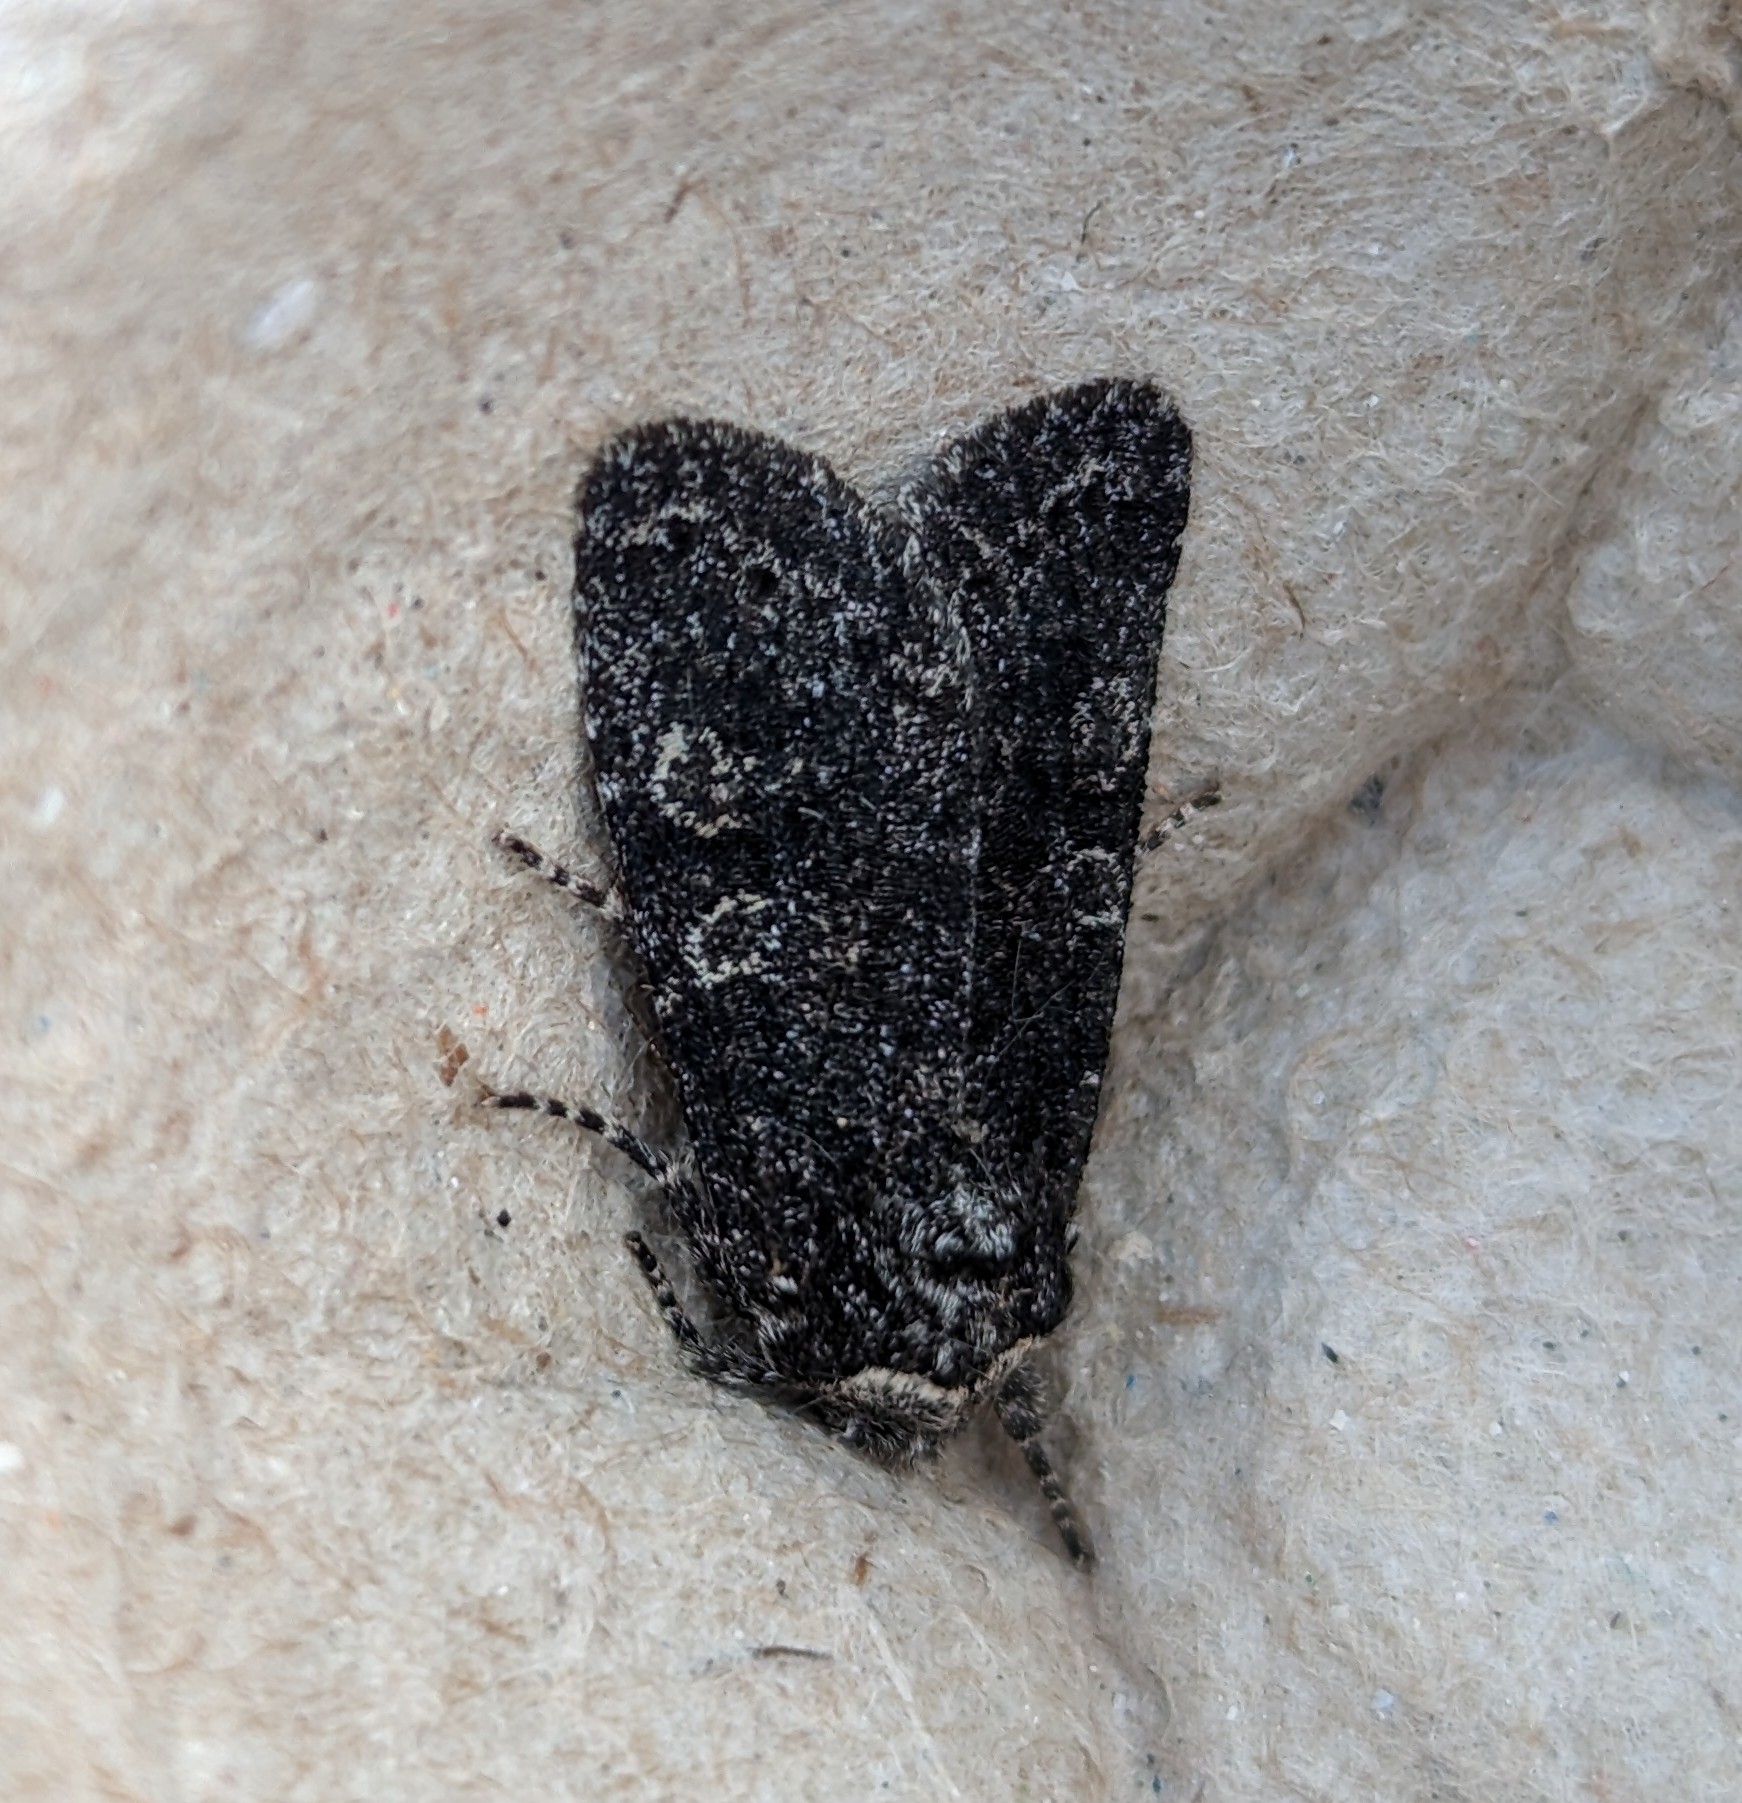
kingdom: Animalia
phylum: Arthropoda
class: Insecta
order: Lepidoptera
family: Noctuidae
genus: Egira
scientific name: Egira dolosa
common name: Lined black aspen cat.
